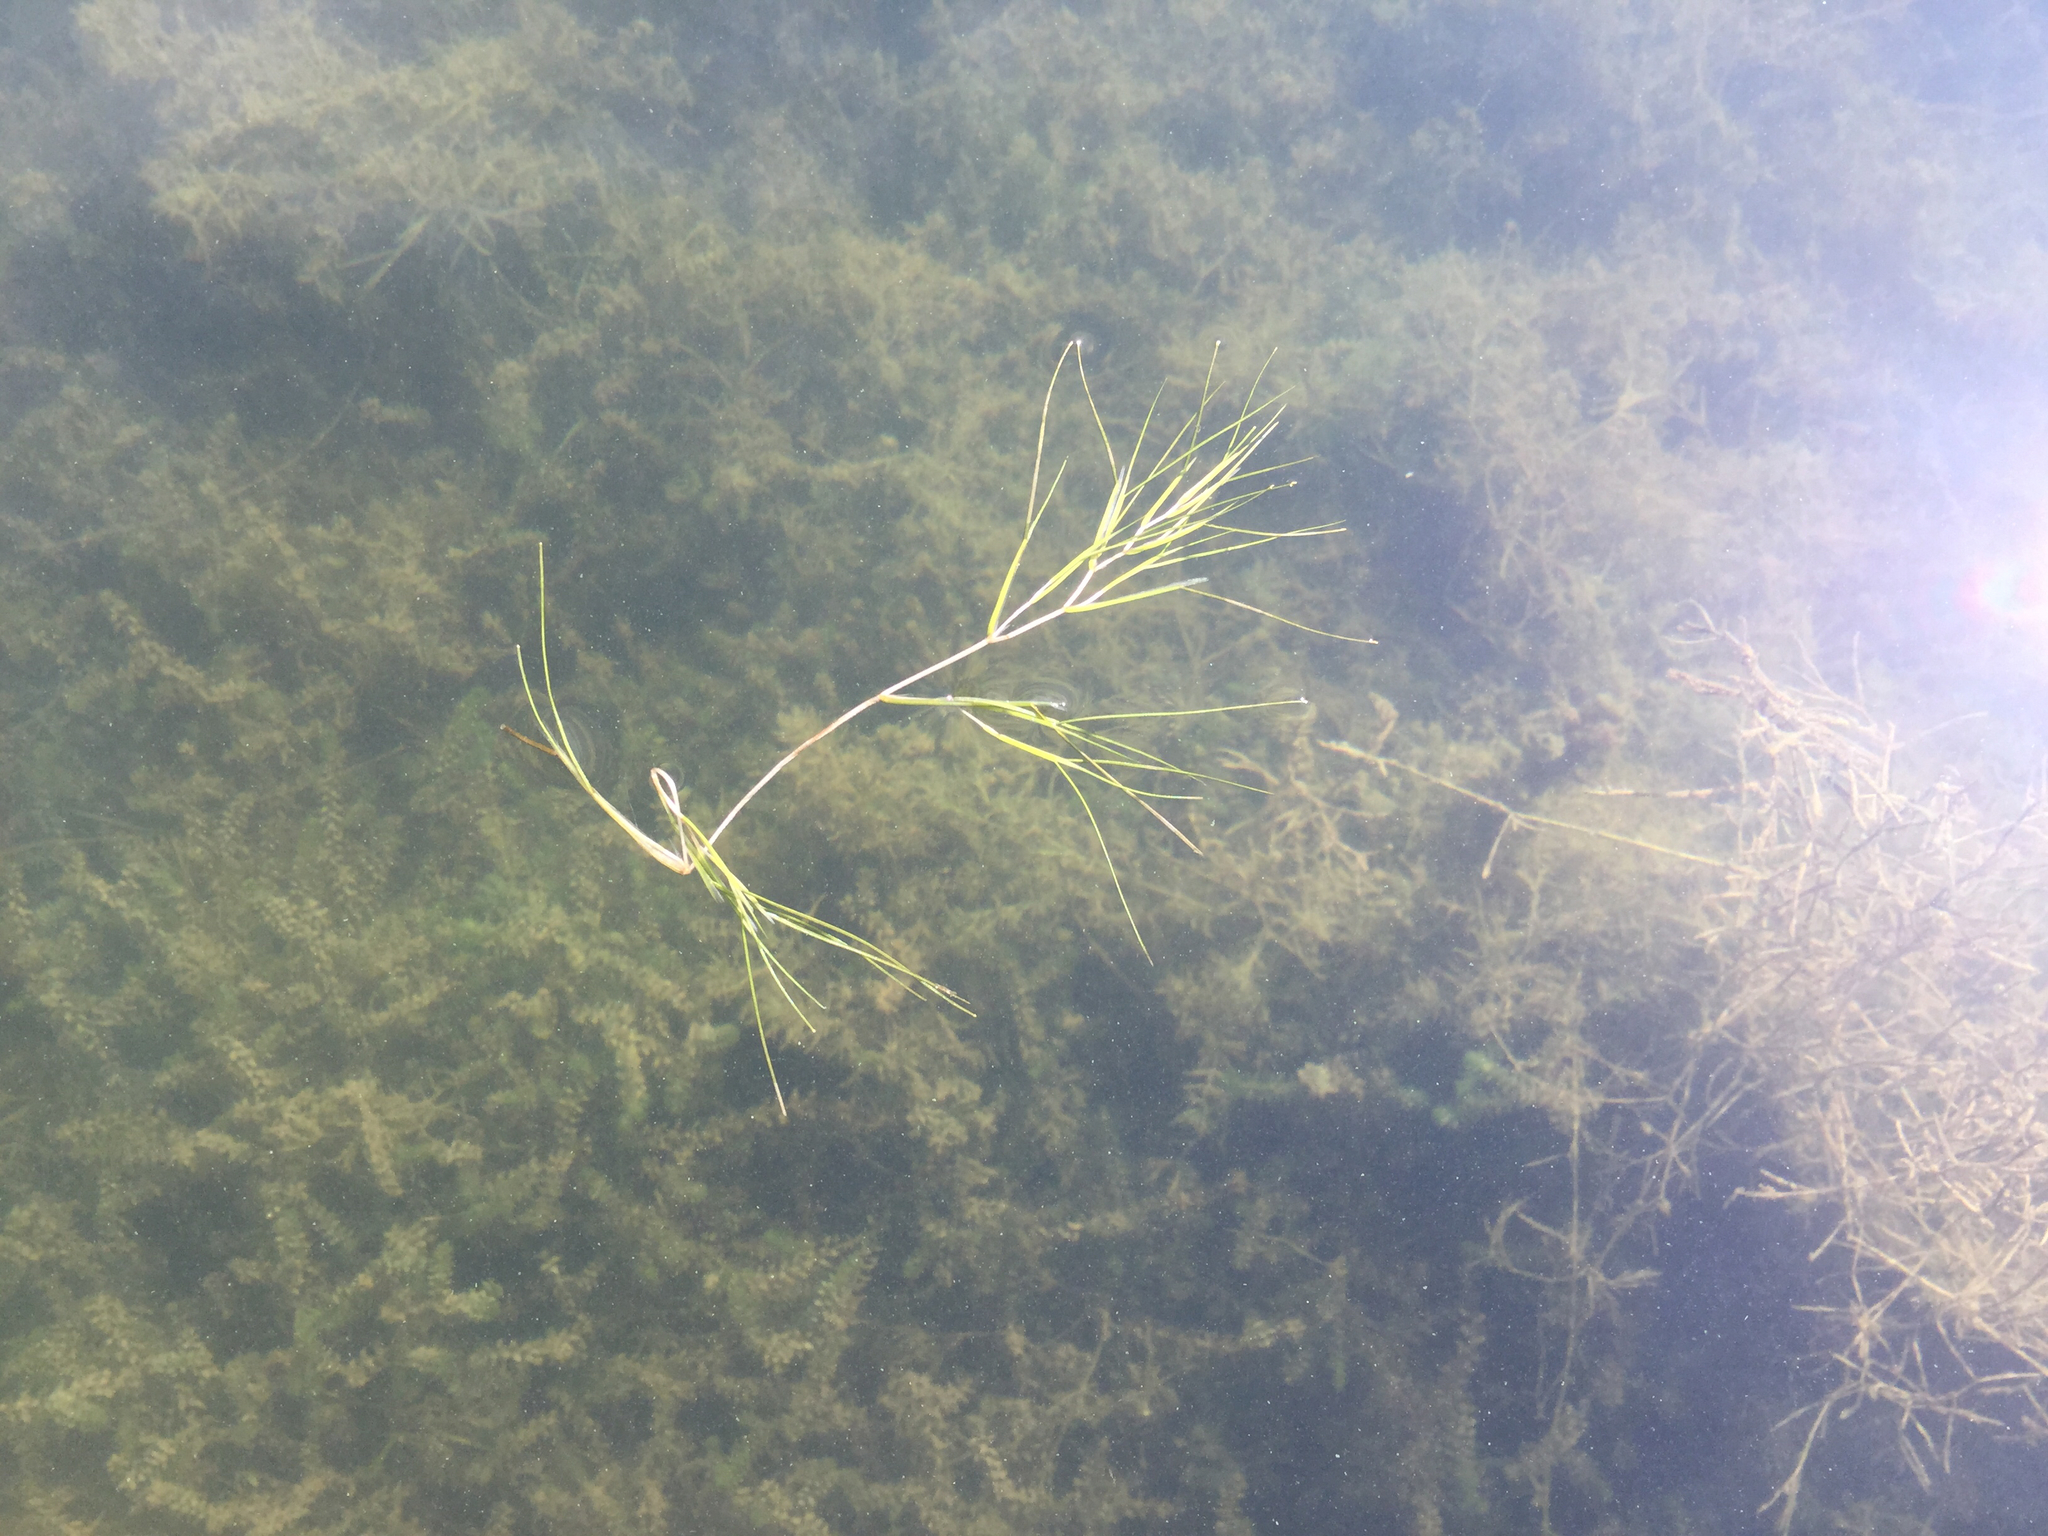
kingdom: Plantae
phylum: Tracheophyta
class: Liliopsida
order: Alismatales
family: Potamogetonaceae
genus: Stuckenia
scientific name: Stuckenia pectinata
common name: Sago pondweed
